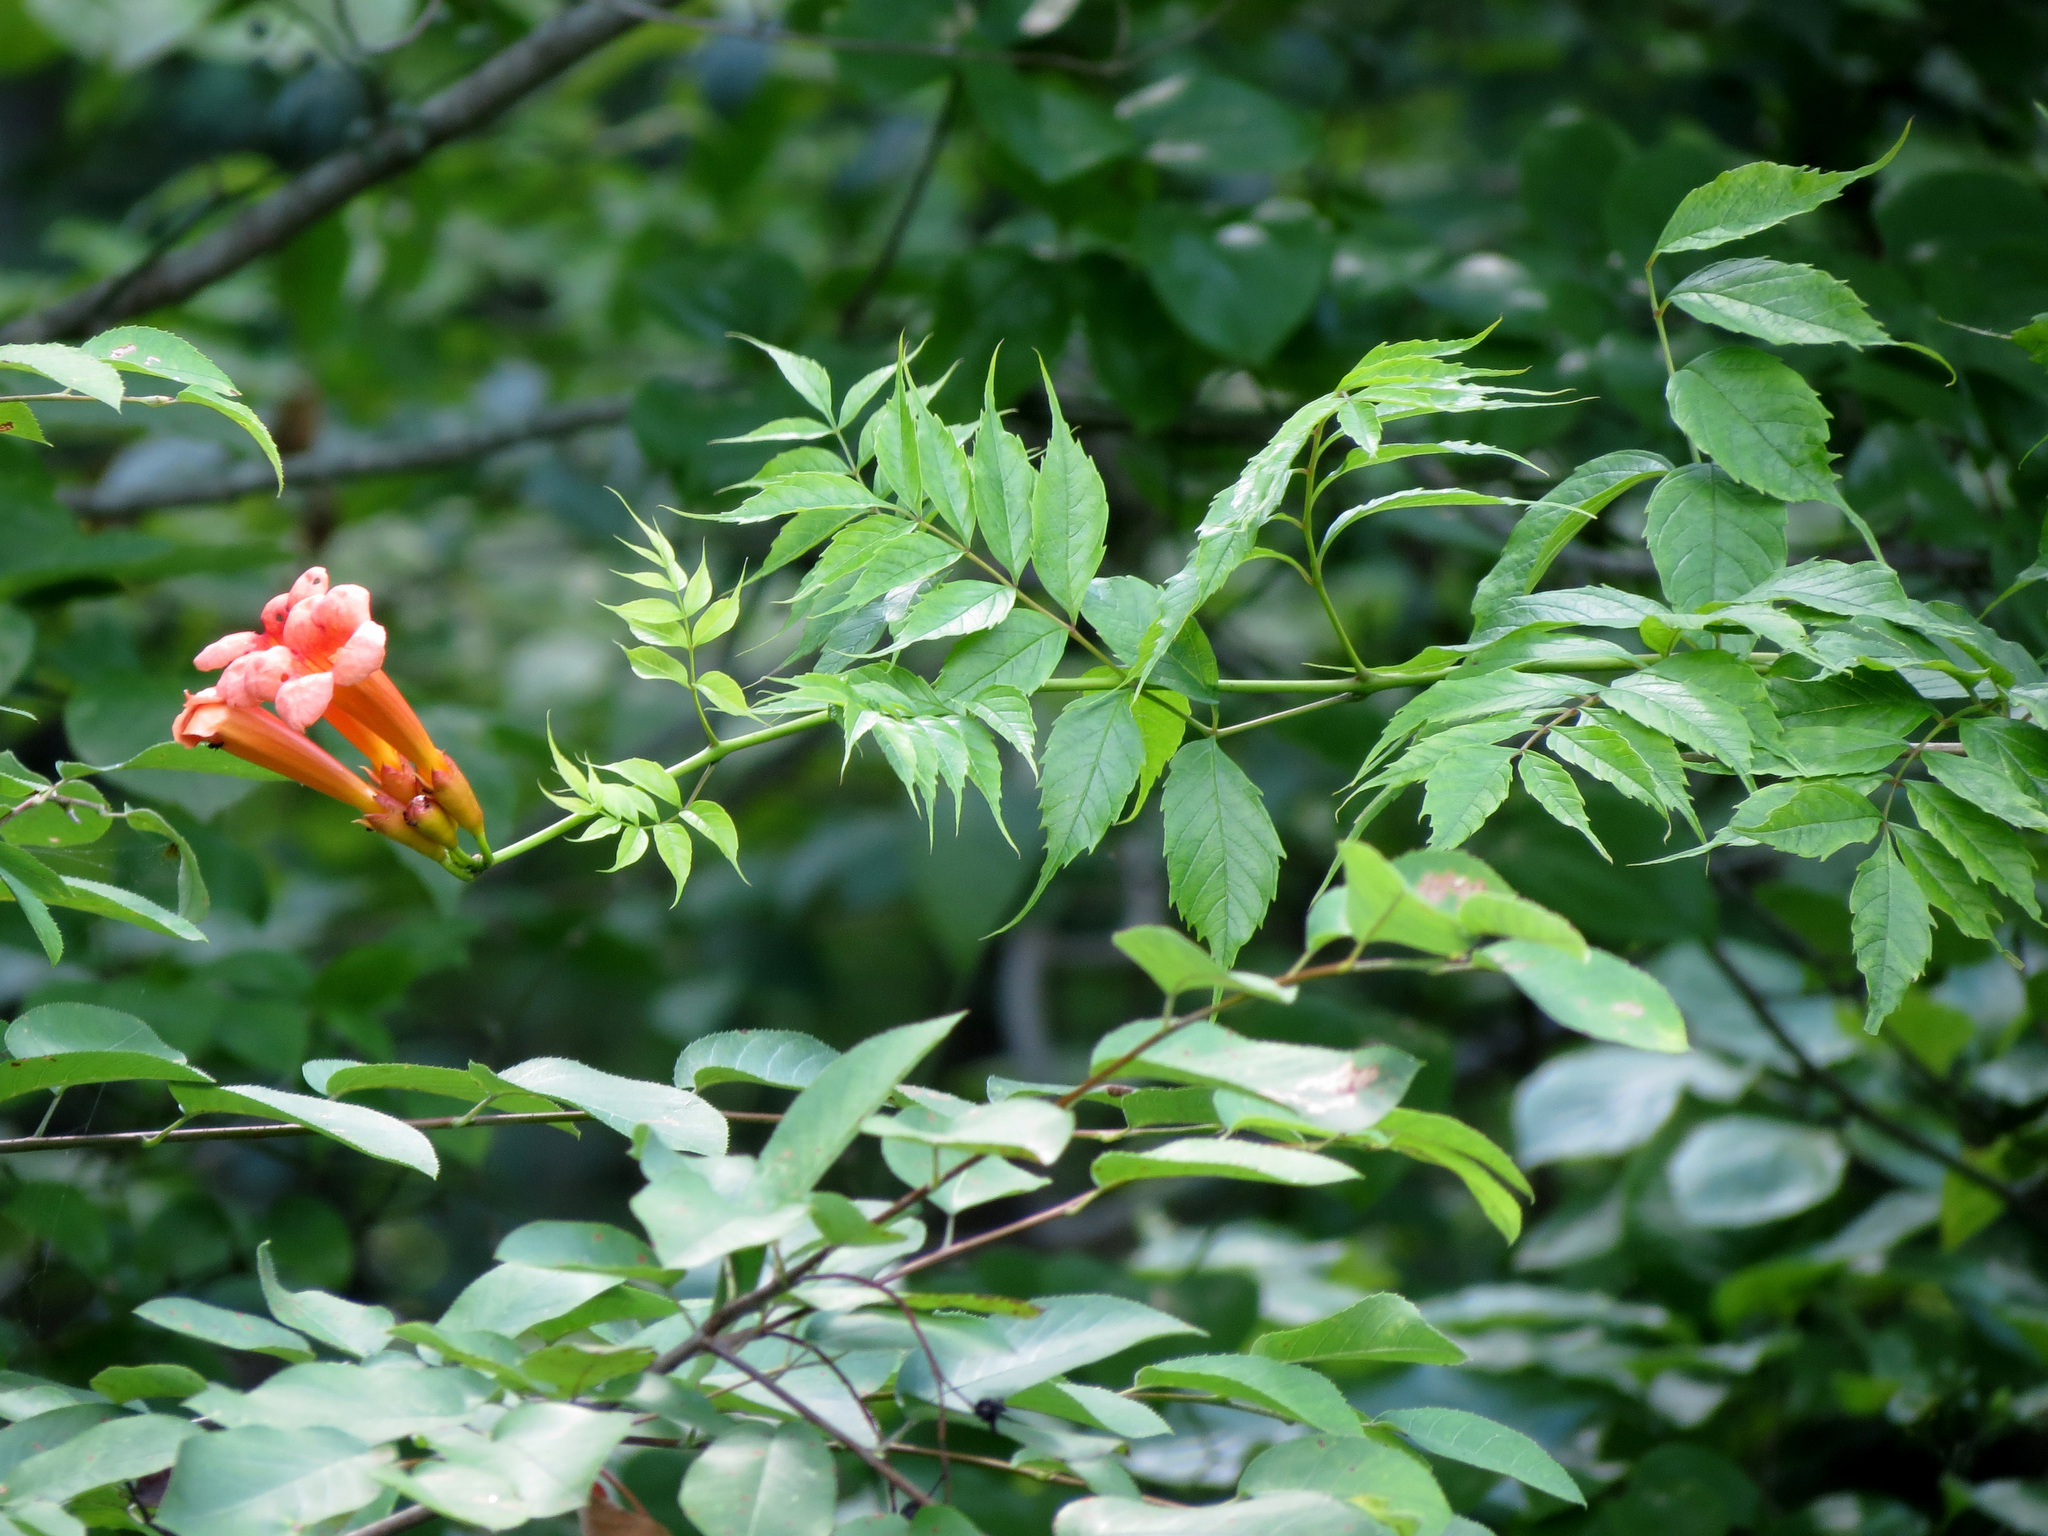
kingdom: Plantae
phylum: Tracheophyta
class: Magnoliopsida
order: Lamiales
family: Bignoniaceae
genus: Campsis
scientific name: Campsis radicans
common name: Trumpet-creeper
